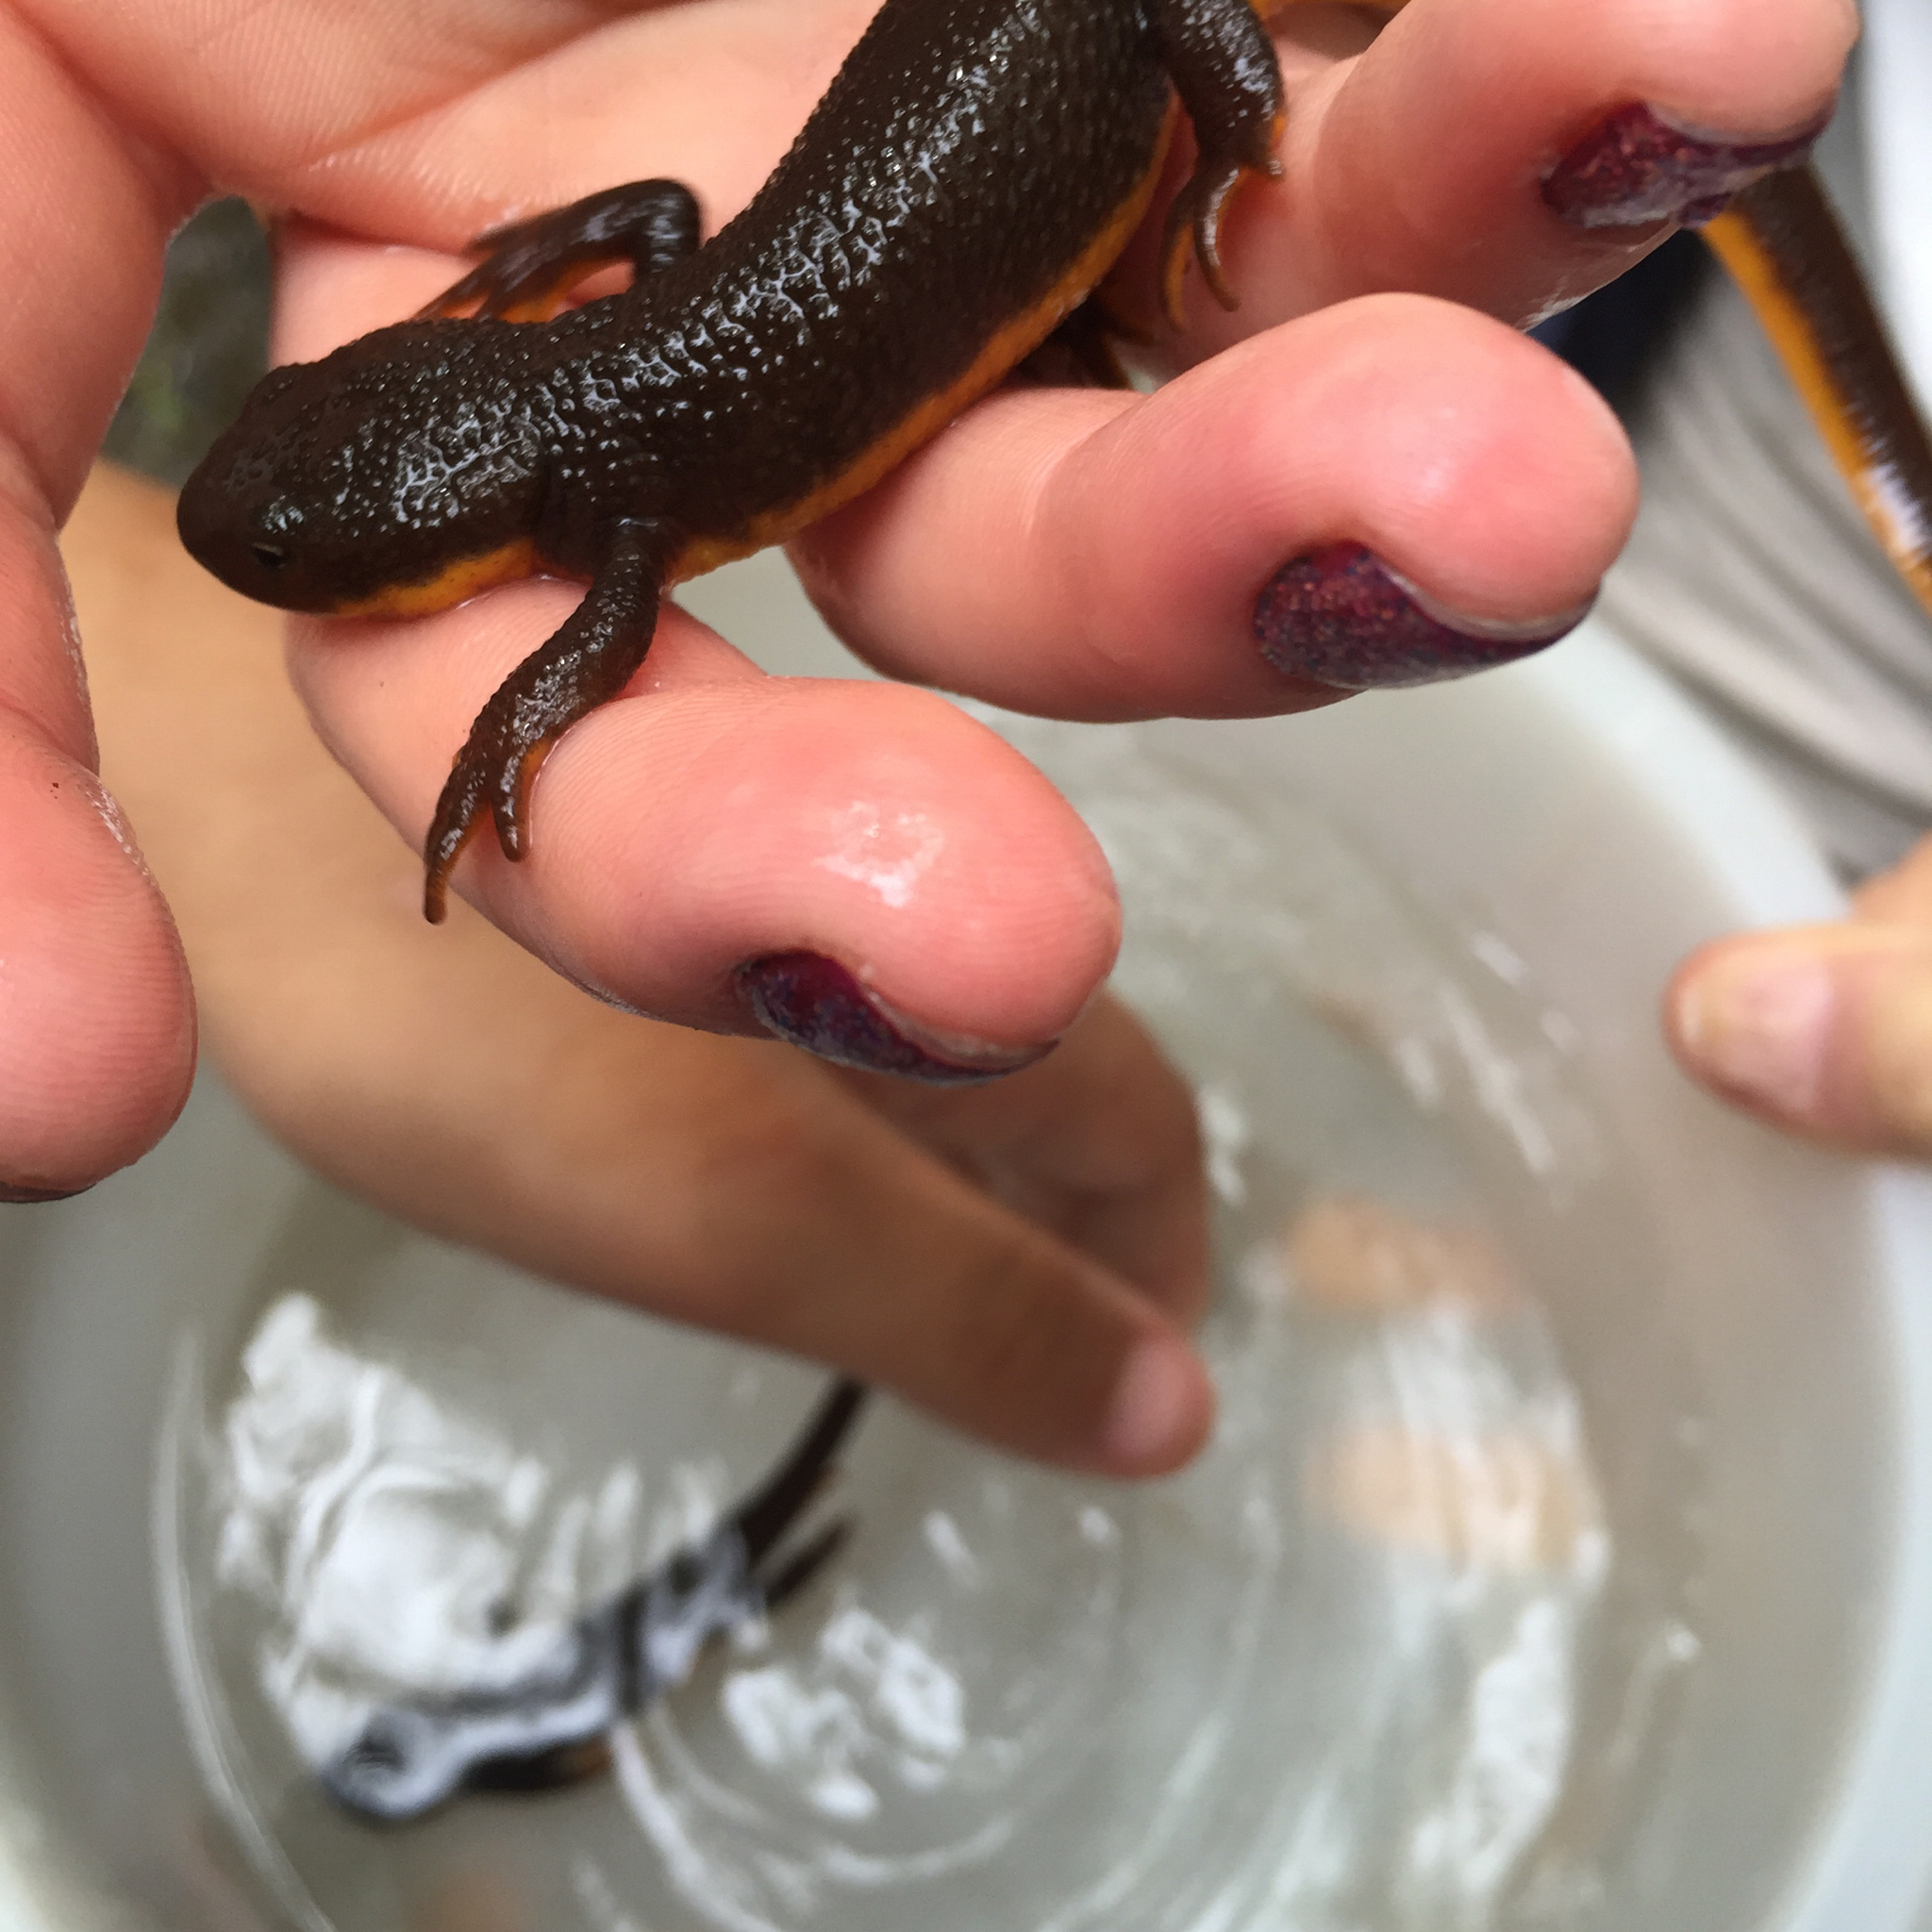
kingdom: Animalia
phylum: Chordata
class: Amphibia
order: Caudata
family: Salamandridae
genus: Taricha
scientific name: Taricha granulosa
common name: Roughskin newt
